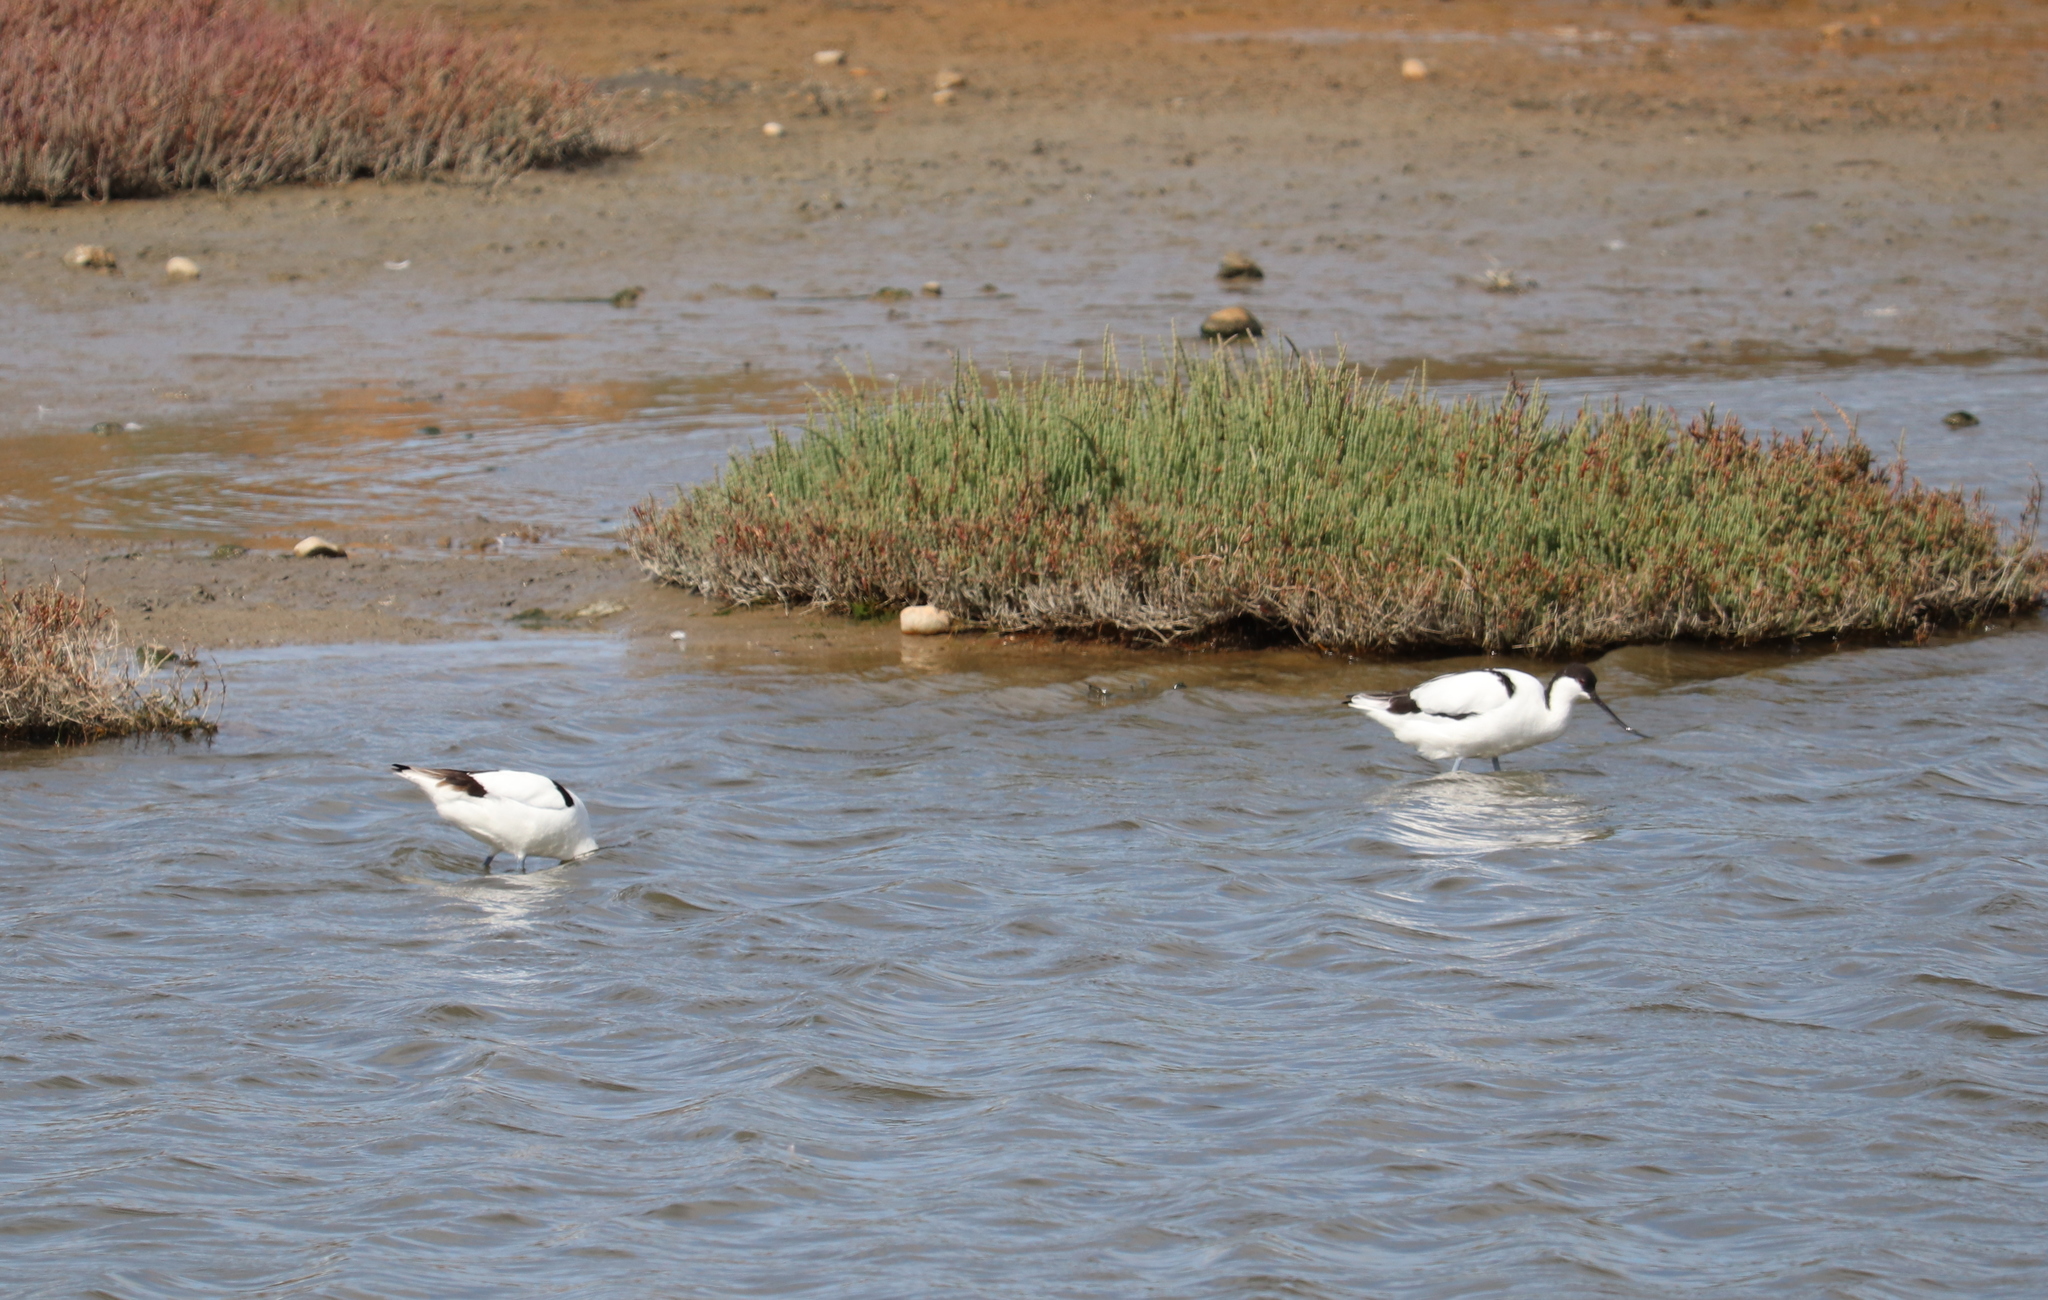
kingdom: Animalia
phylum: Chordata
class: Aves
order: Charadriiformes
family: Recurvirostridae
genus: Recurvirostra
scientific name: Recurvirostra avosetta
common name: Pied avocet
